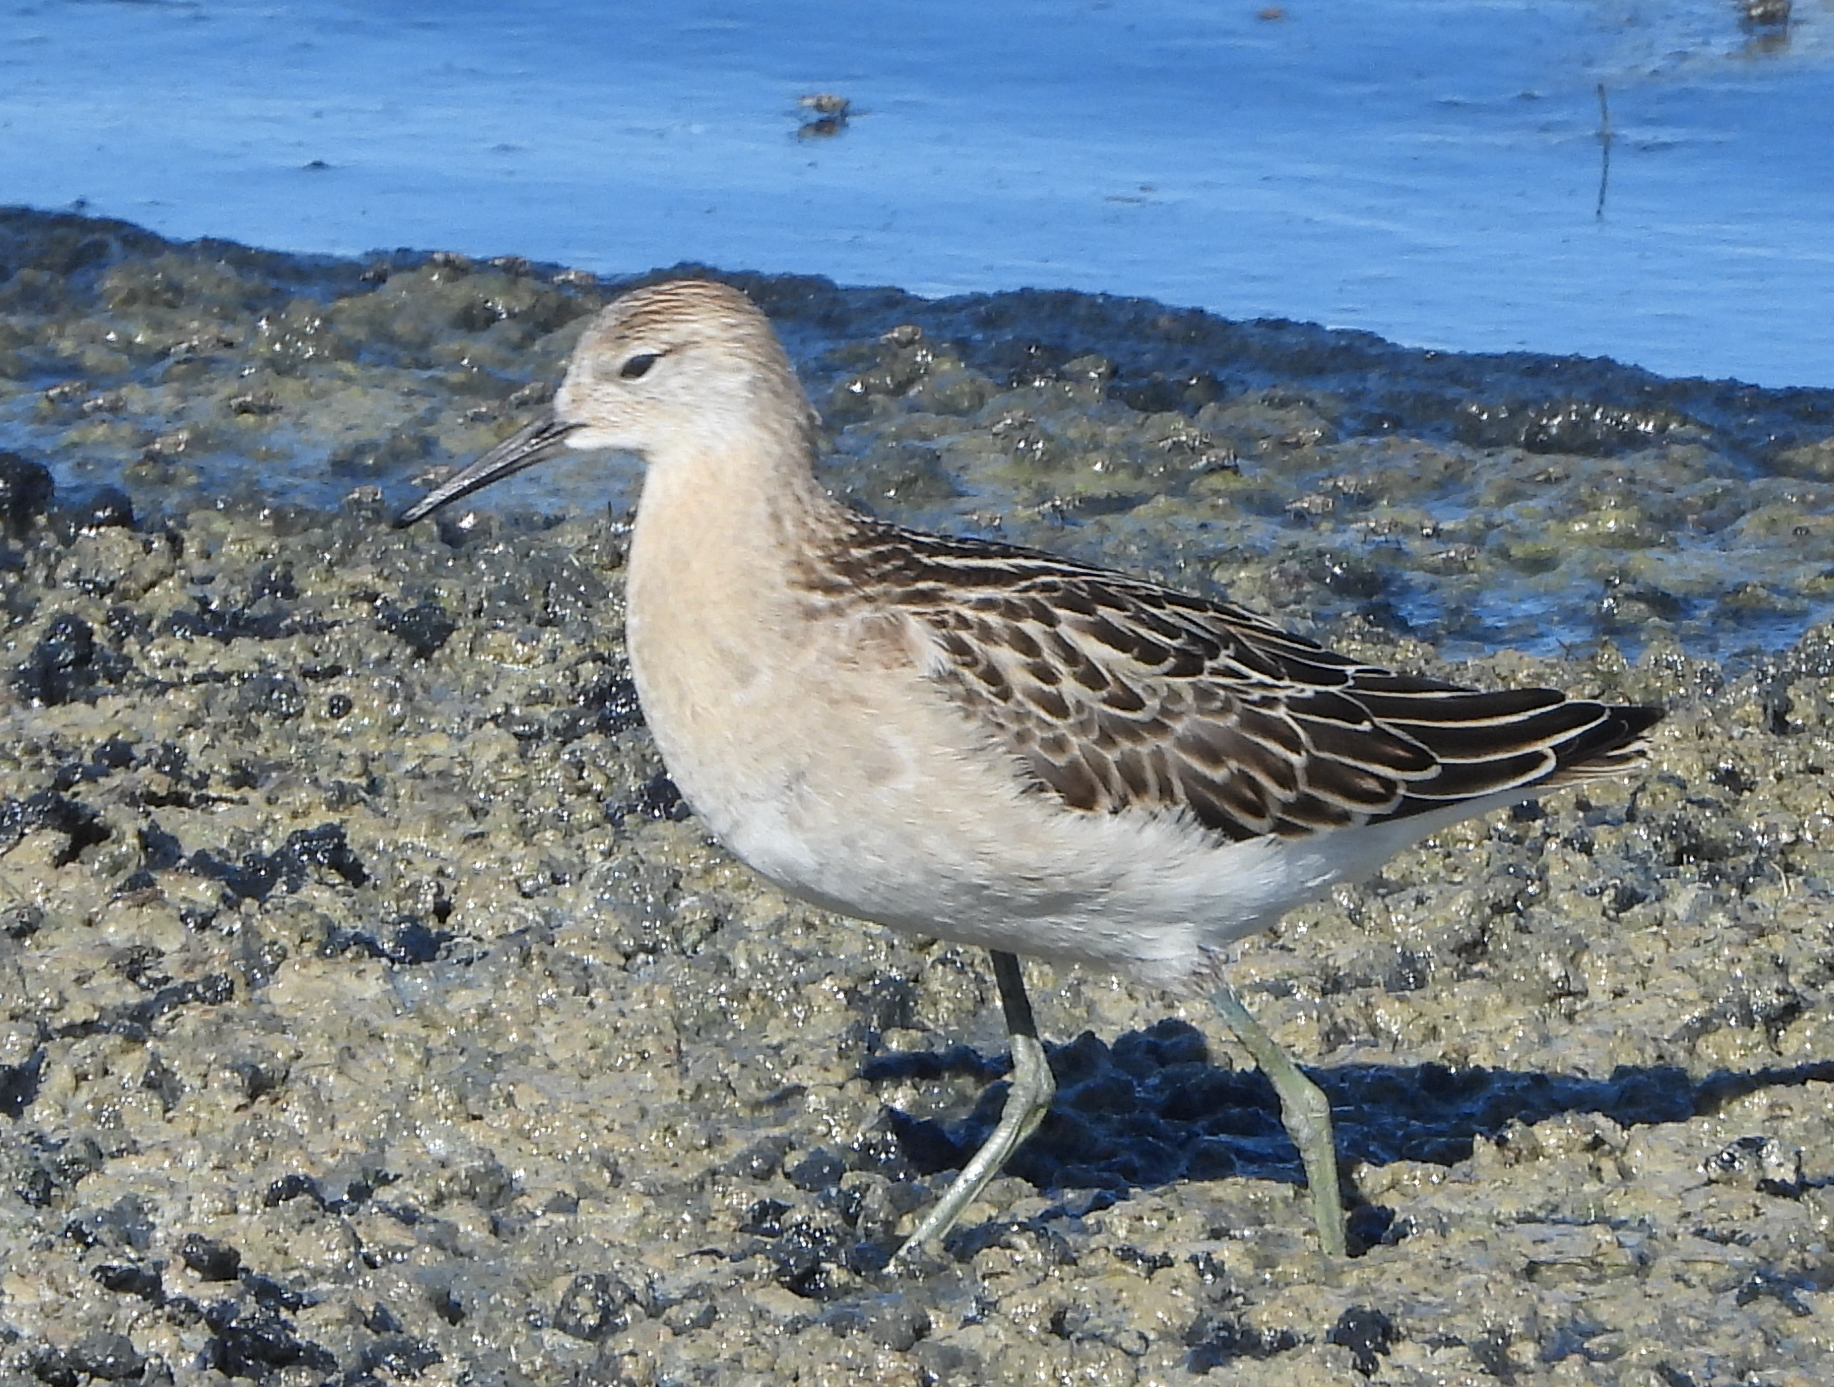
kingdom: Animalia
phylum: Chordata
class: Aves
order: Charadriiformes
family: Scolopacidae
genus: Calidris
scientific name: Calidris pugnax
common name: Ruff
